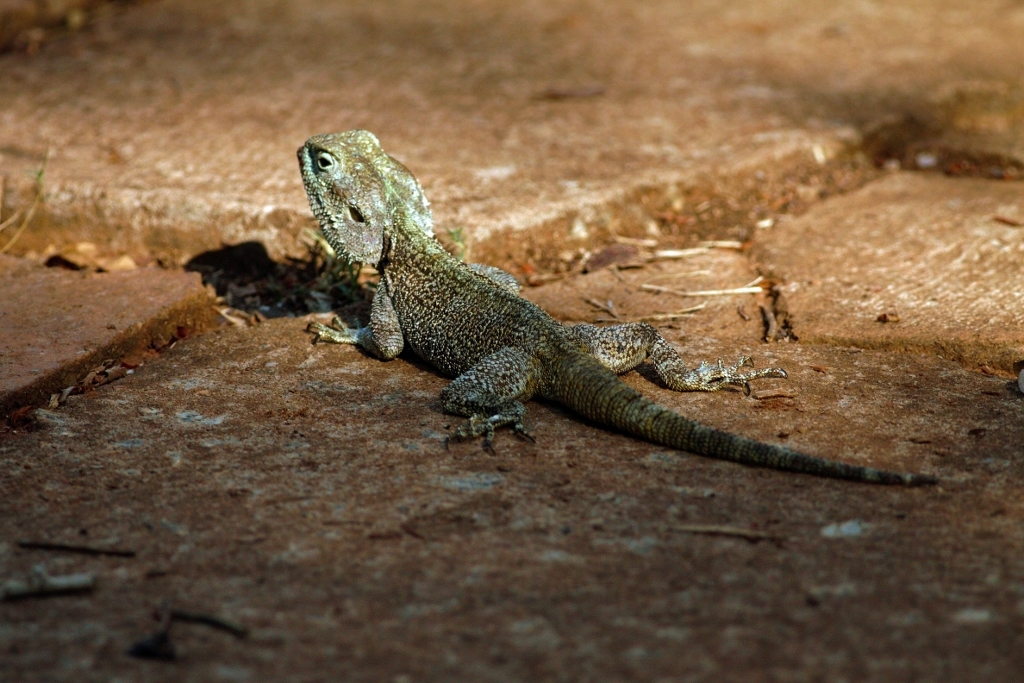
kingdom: Animalia
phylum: Chordata
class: Squamata
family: Agamidae
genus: Acanthocercus
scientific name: Acanthocercus atricollis
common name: Southern tree agama
